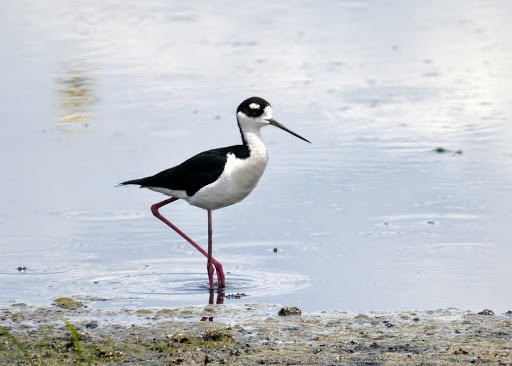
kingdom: Animalia
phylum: Chordata
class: Aves
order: Charadriiformes
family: Recurvirostridae
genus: Himantopus
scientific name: Himantopus mexicanus
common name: Black-necked stilt
